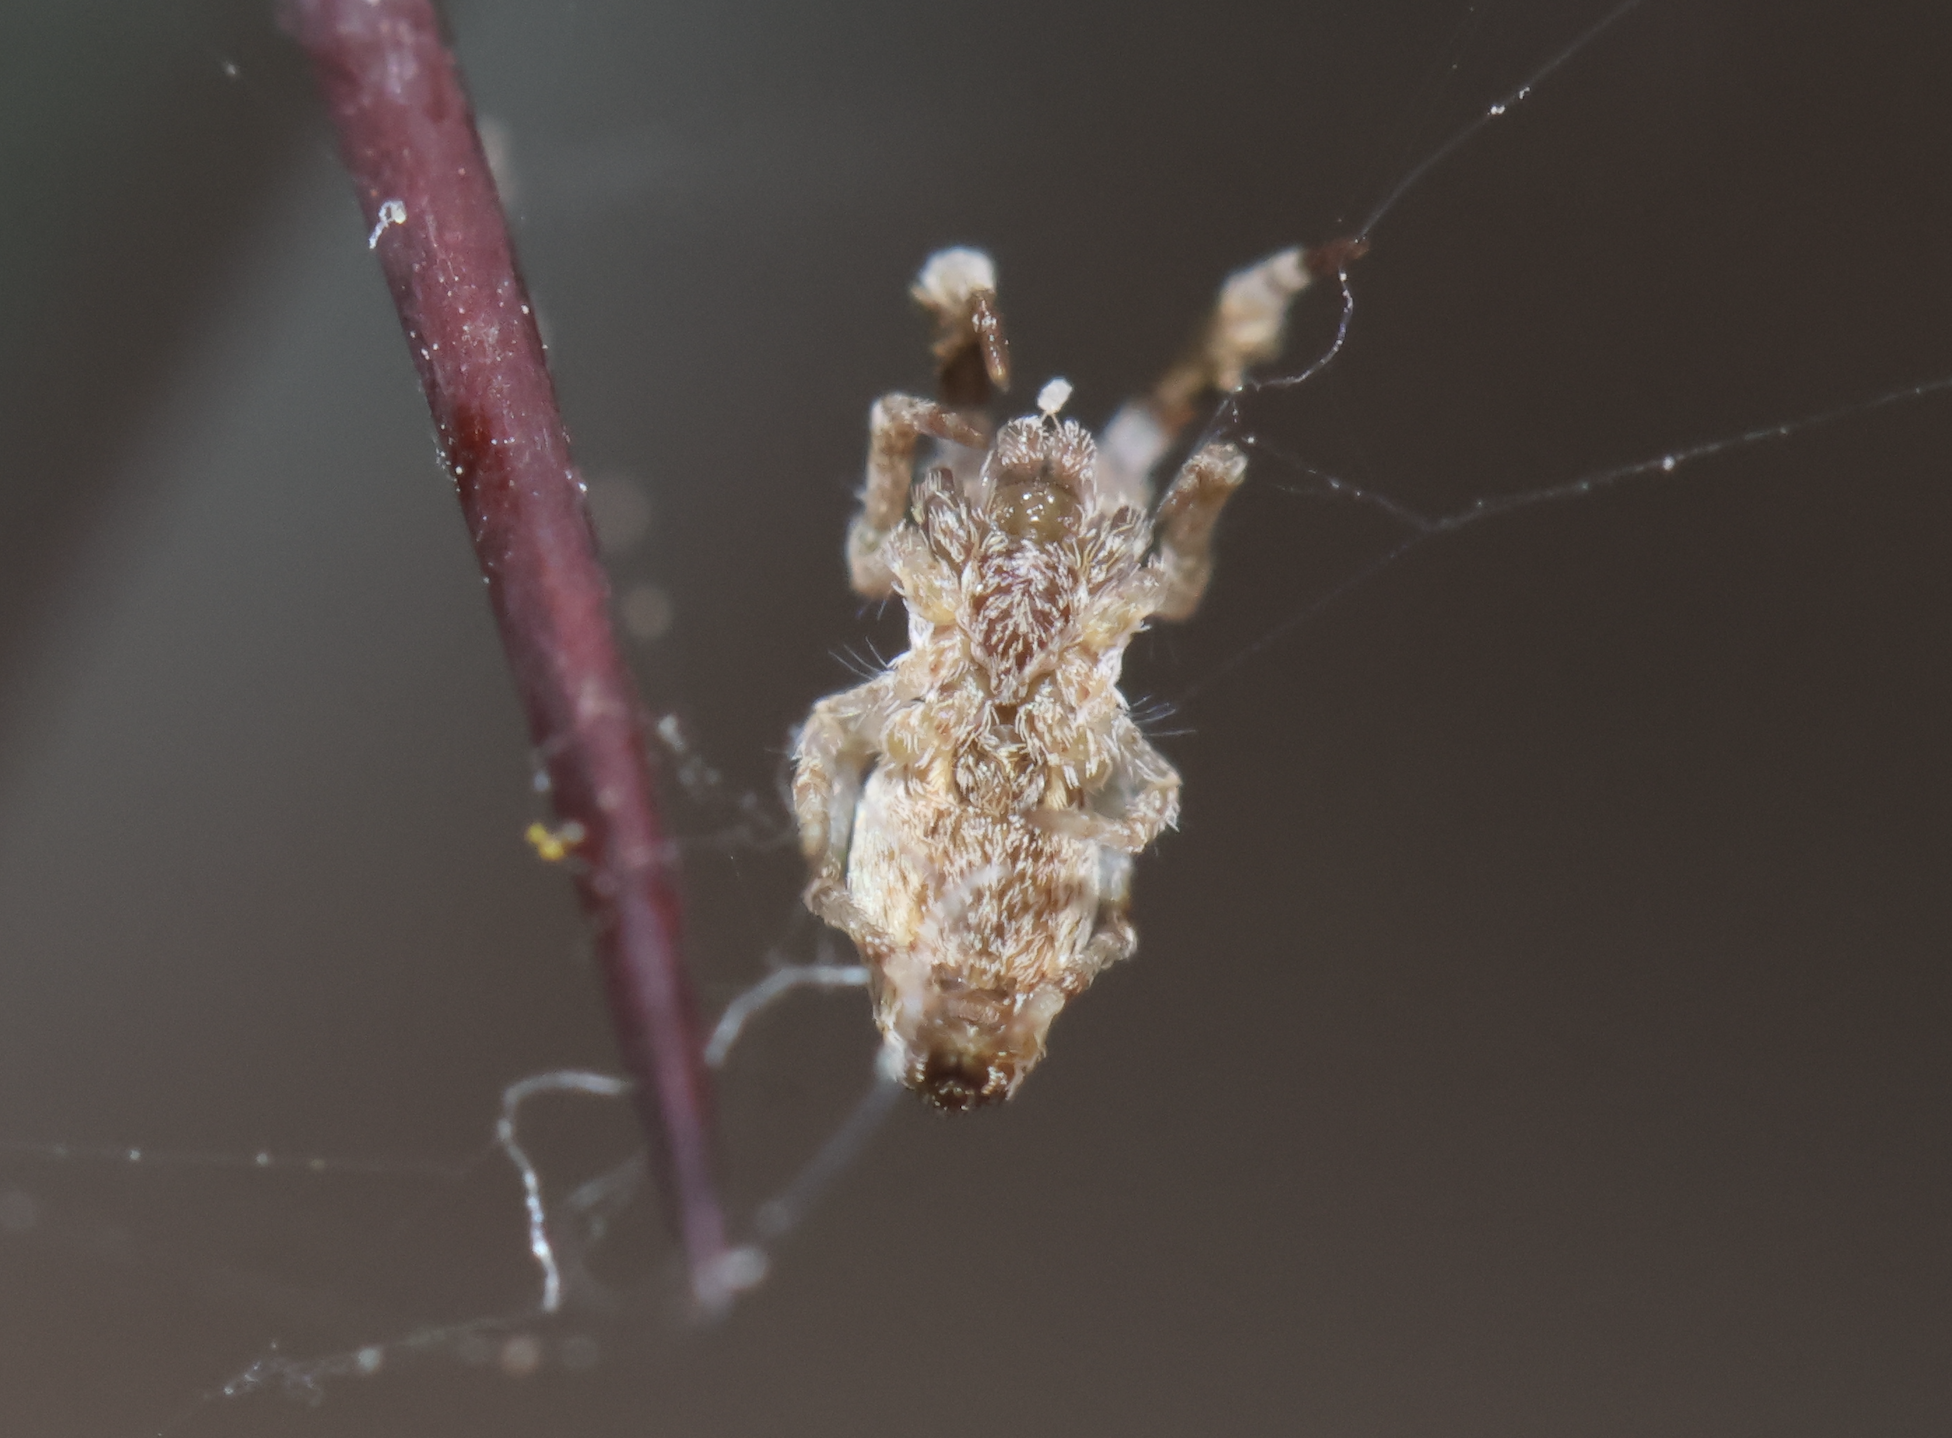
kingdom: Animalia
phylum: Arthropoda
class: Arachnida
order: Araneae
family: Uloboridae
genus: Uloborus
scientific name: Uloborus plumipes
